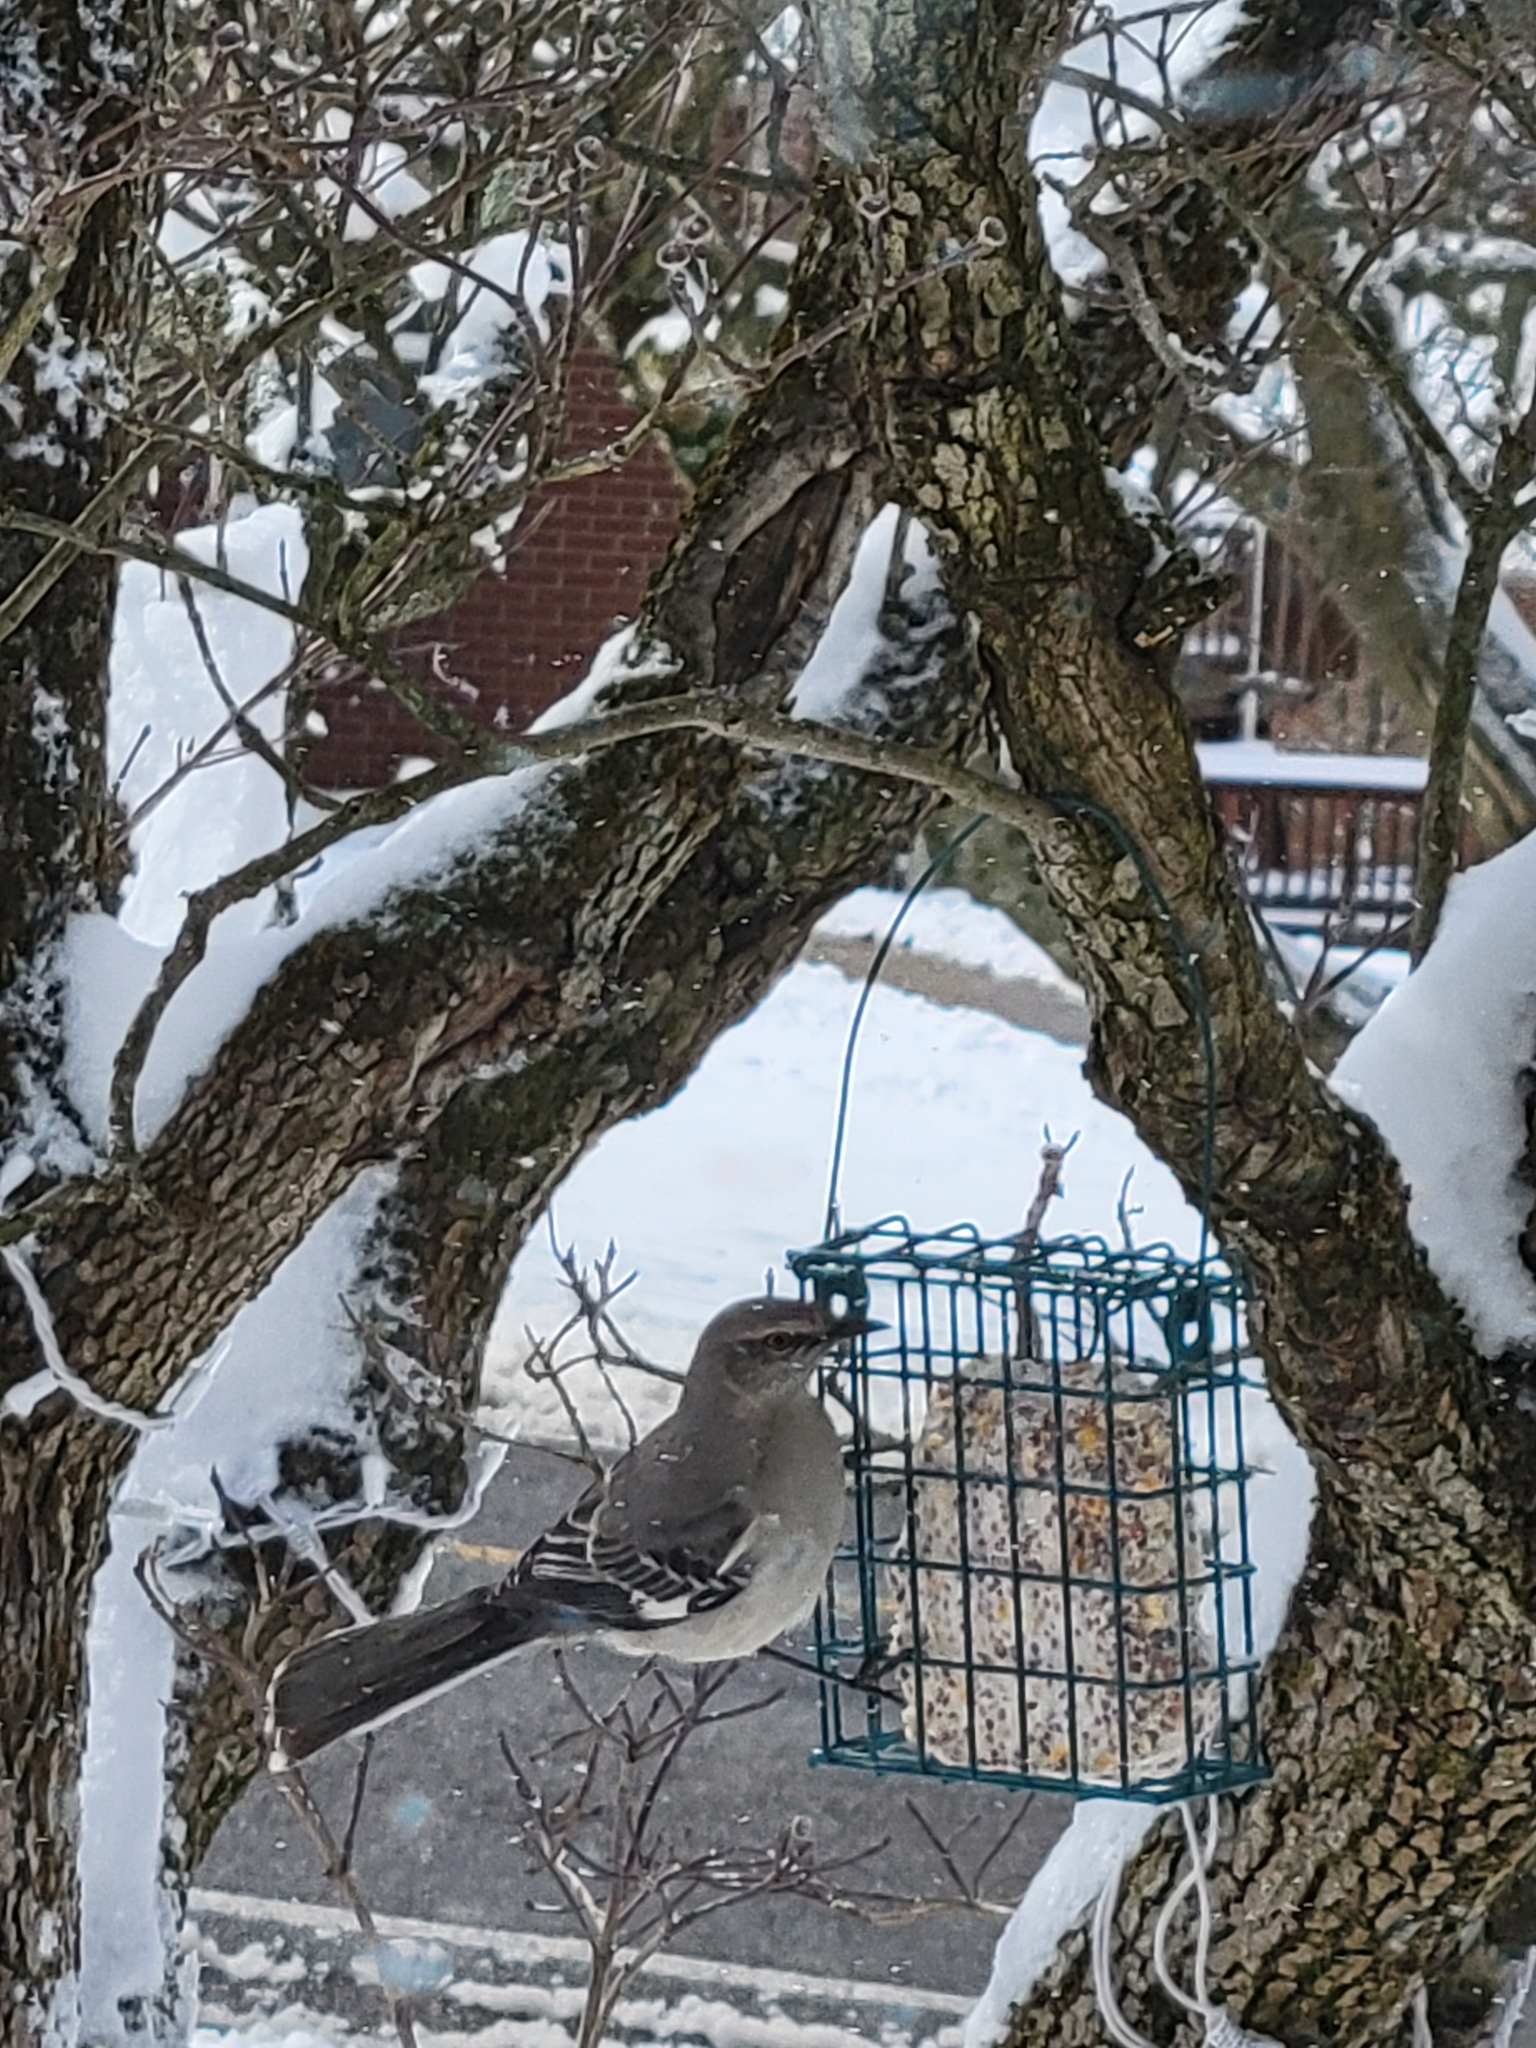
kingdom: Animalia
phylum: Chordata
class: Aves
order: Passeriformes
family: Mimidae
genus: Mimus
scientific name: Mimus polyglottos
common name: Northern mockingbird
